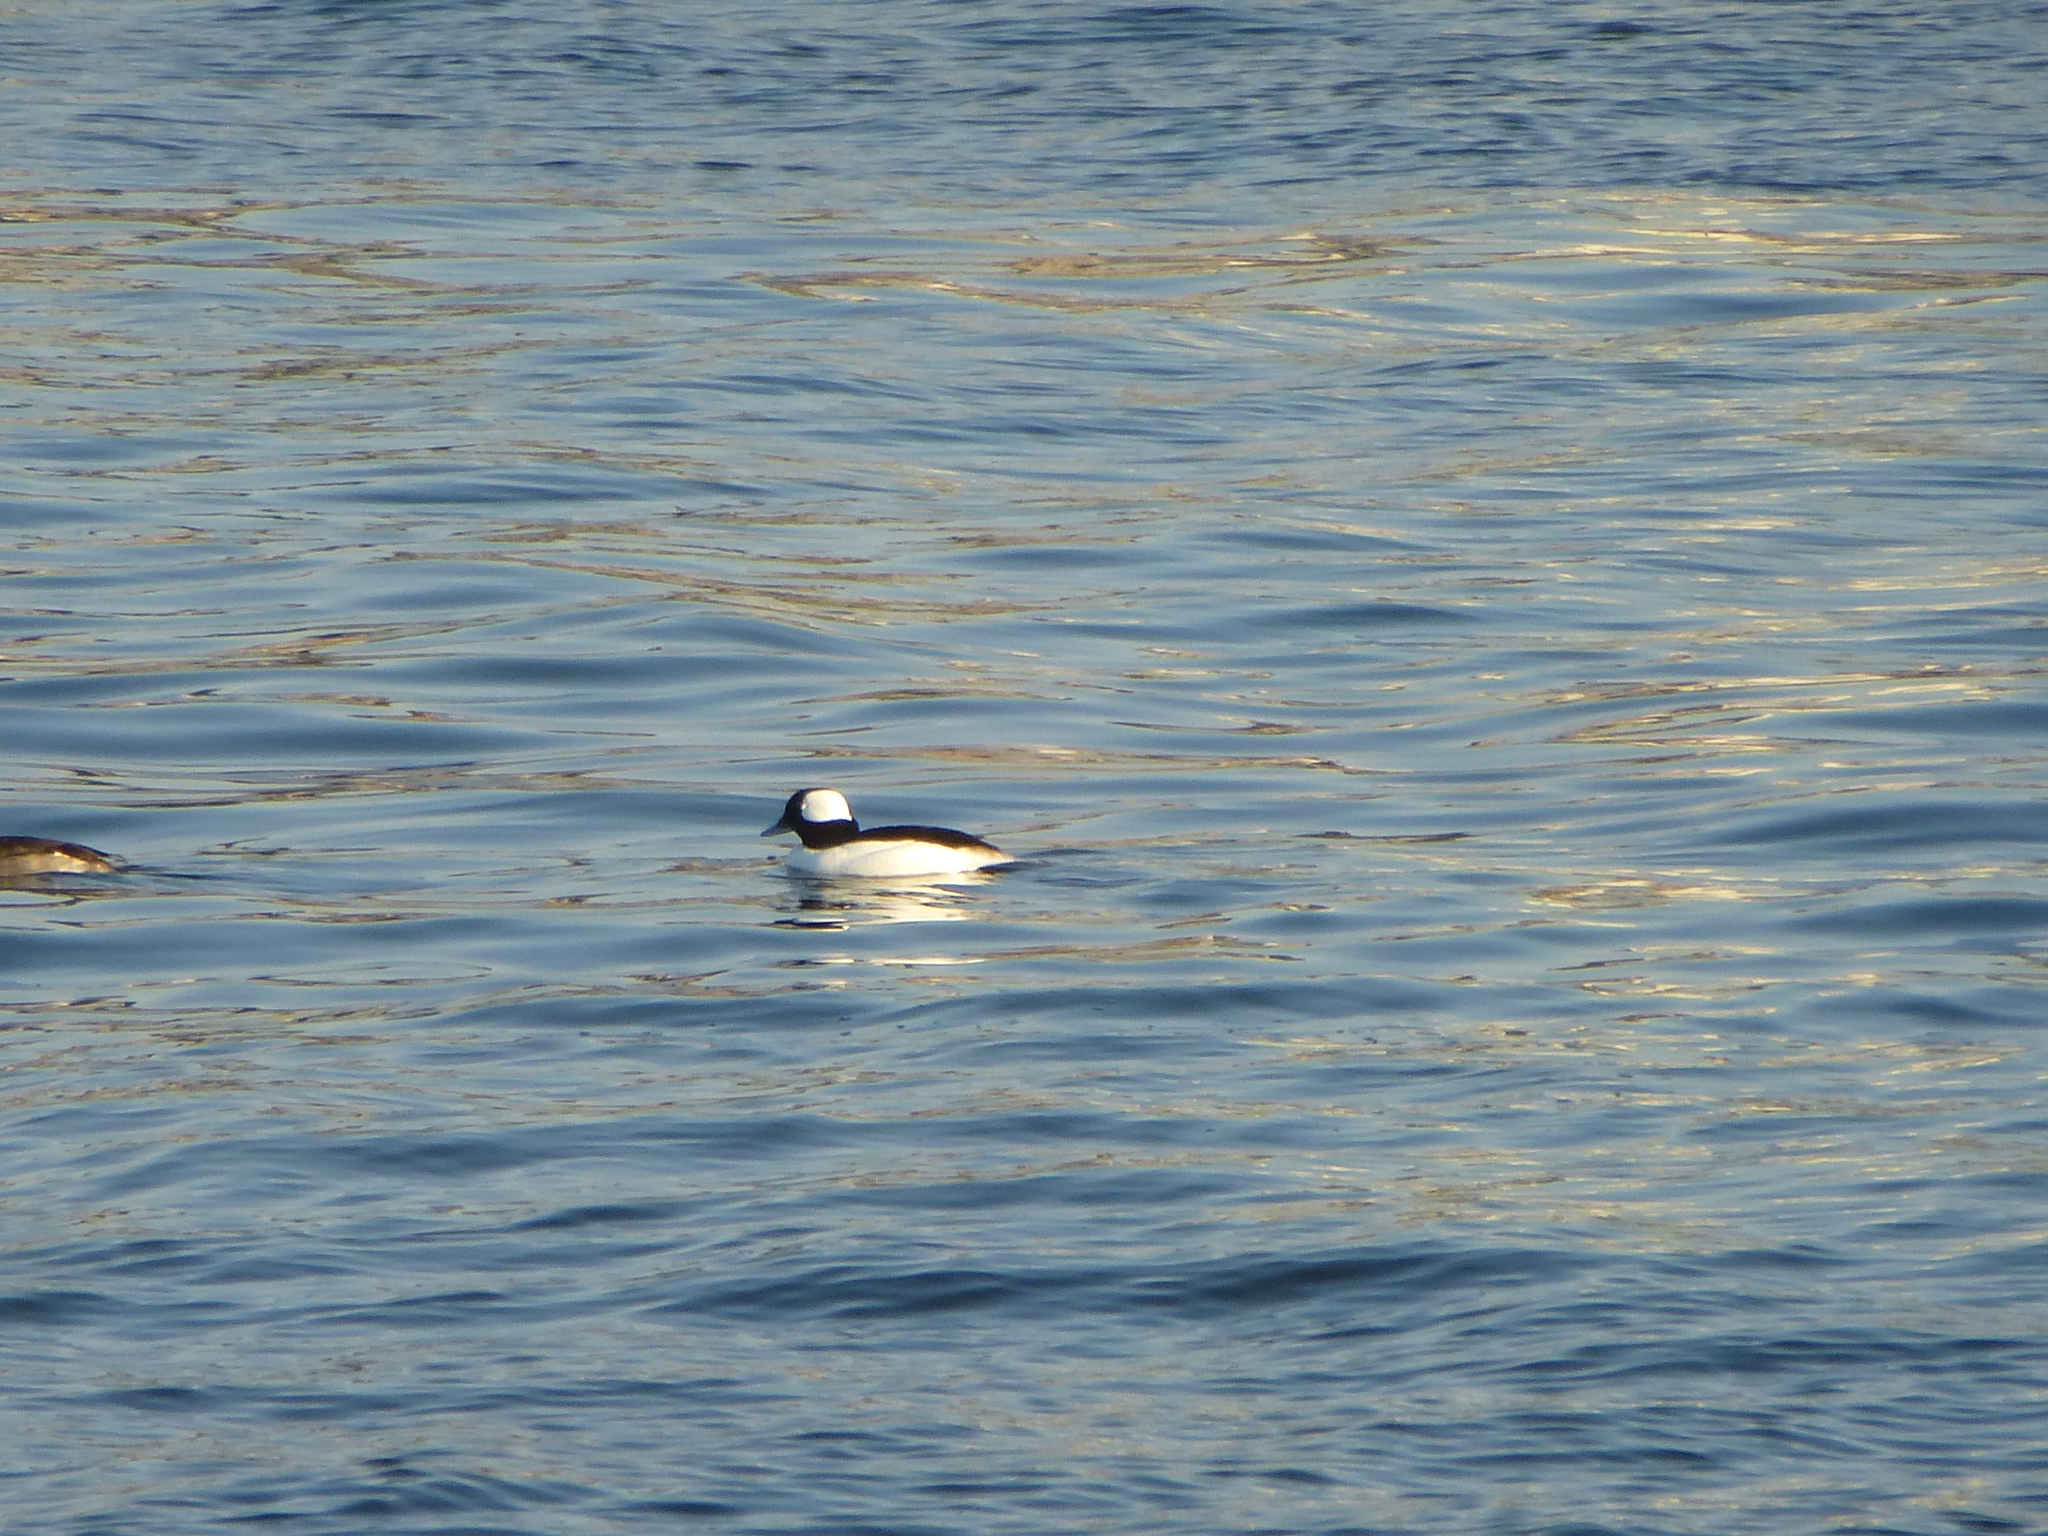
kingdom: Animalia
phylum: Chordata
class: Aves
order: Anseriformes
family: Anatidae
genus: Bucephala
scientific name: Bucephala albeola
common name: Bufflehead
